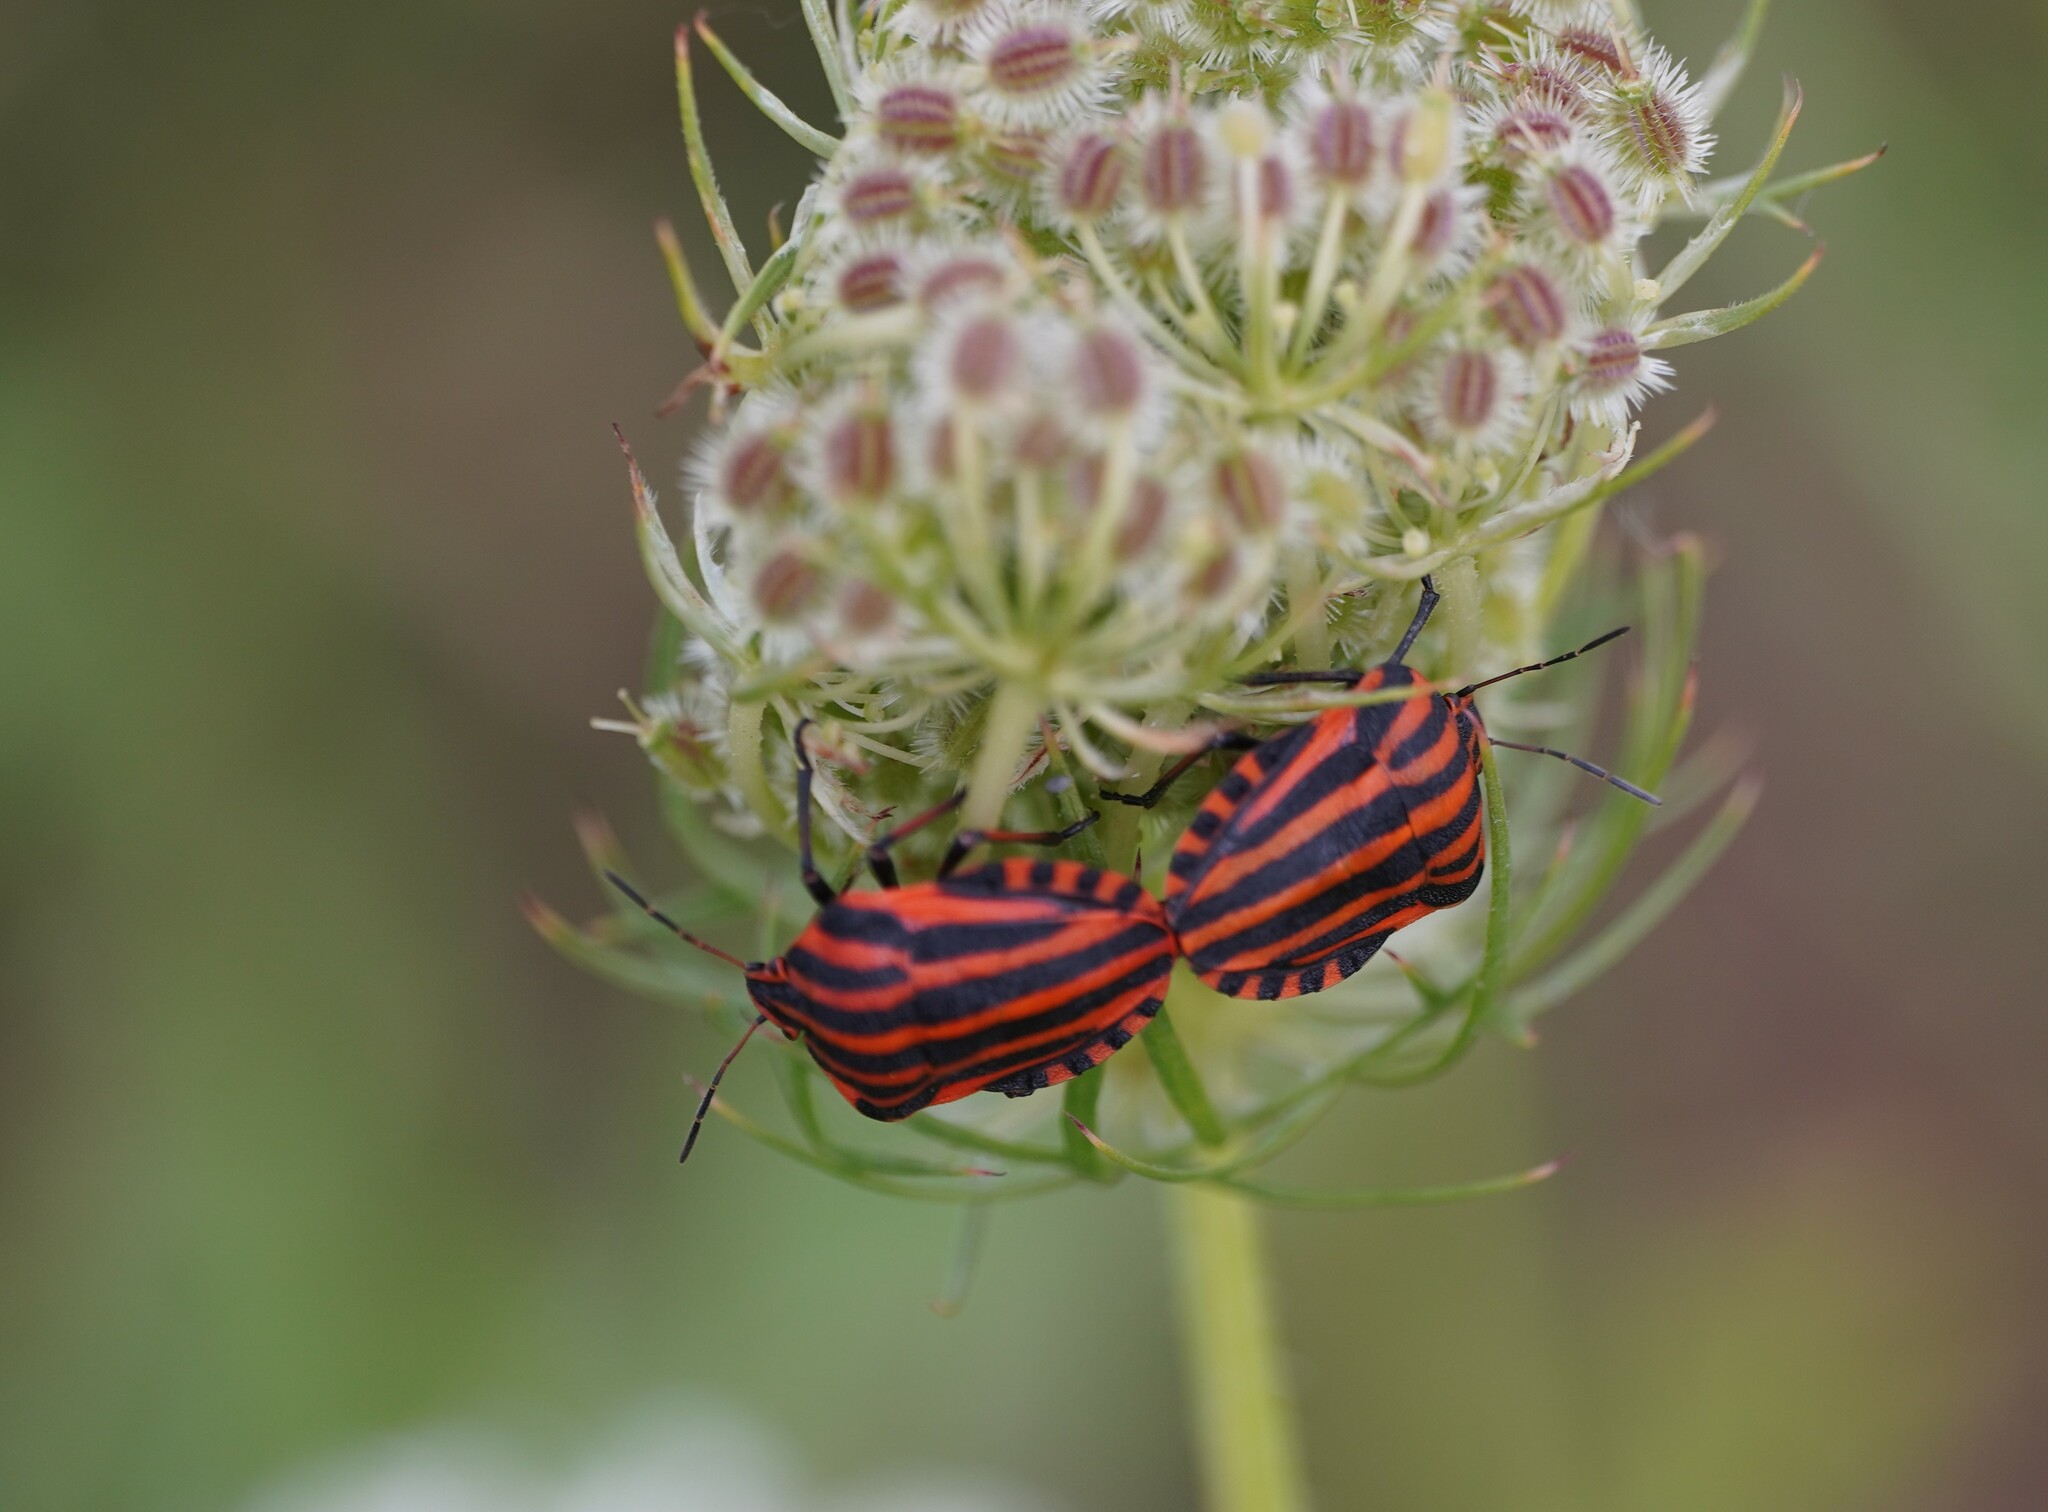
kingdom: Animalia
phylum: Arthropoda
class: Insecta
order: Hemiptera
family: Pentatomidae
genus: Graphosoma
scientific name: Graphosoma italicum
